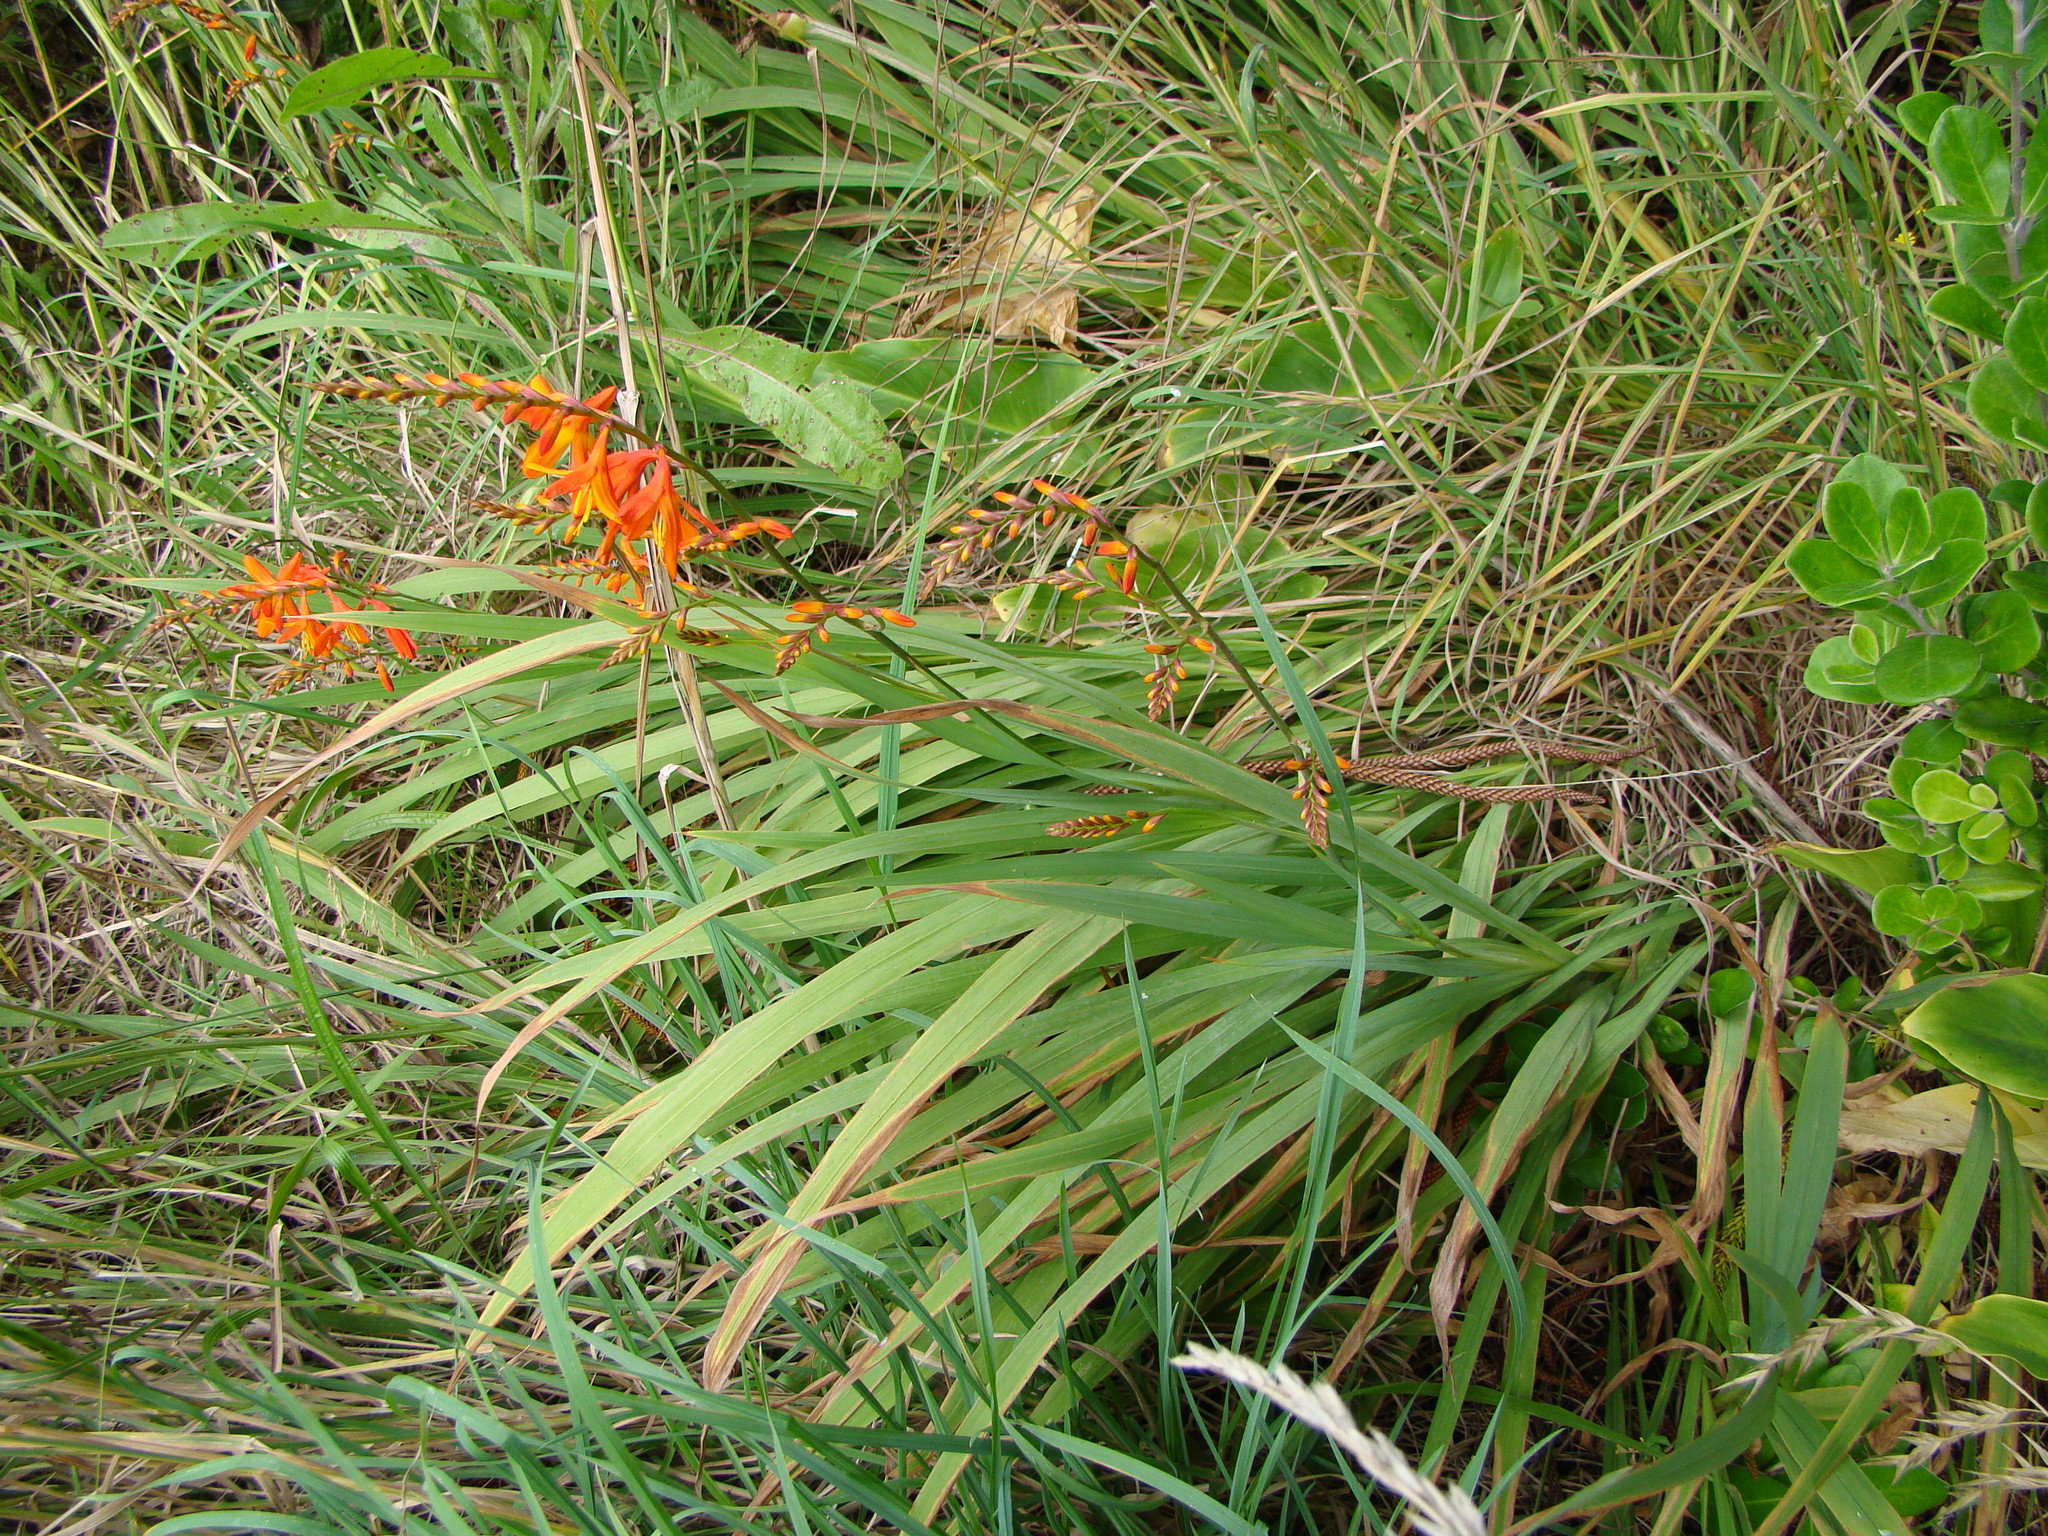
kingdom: Plantae
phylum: Tracheophyta
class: Liliopsida
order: Asparagales
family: Iridaceae
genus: Crocosmia
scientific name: Crocosmia crocosmiiflora
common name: Montbretia
